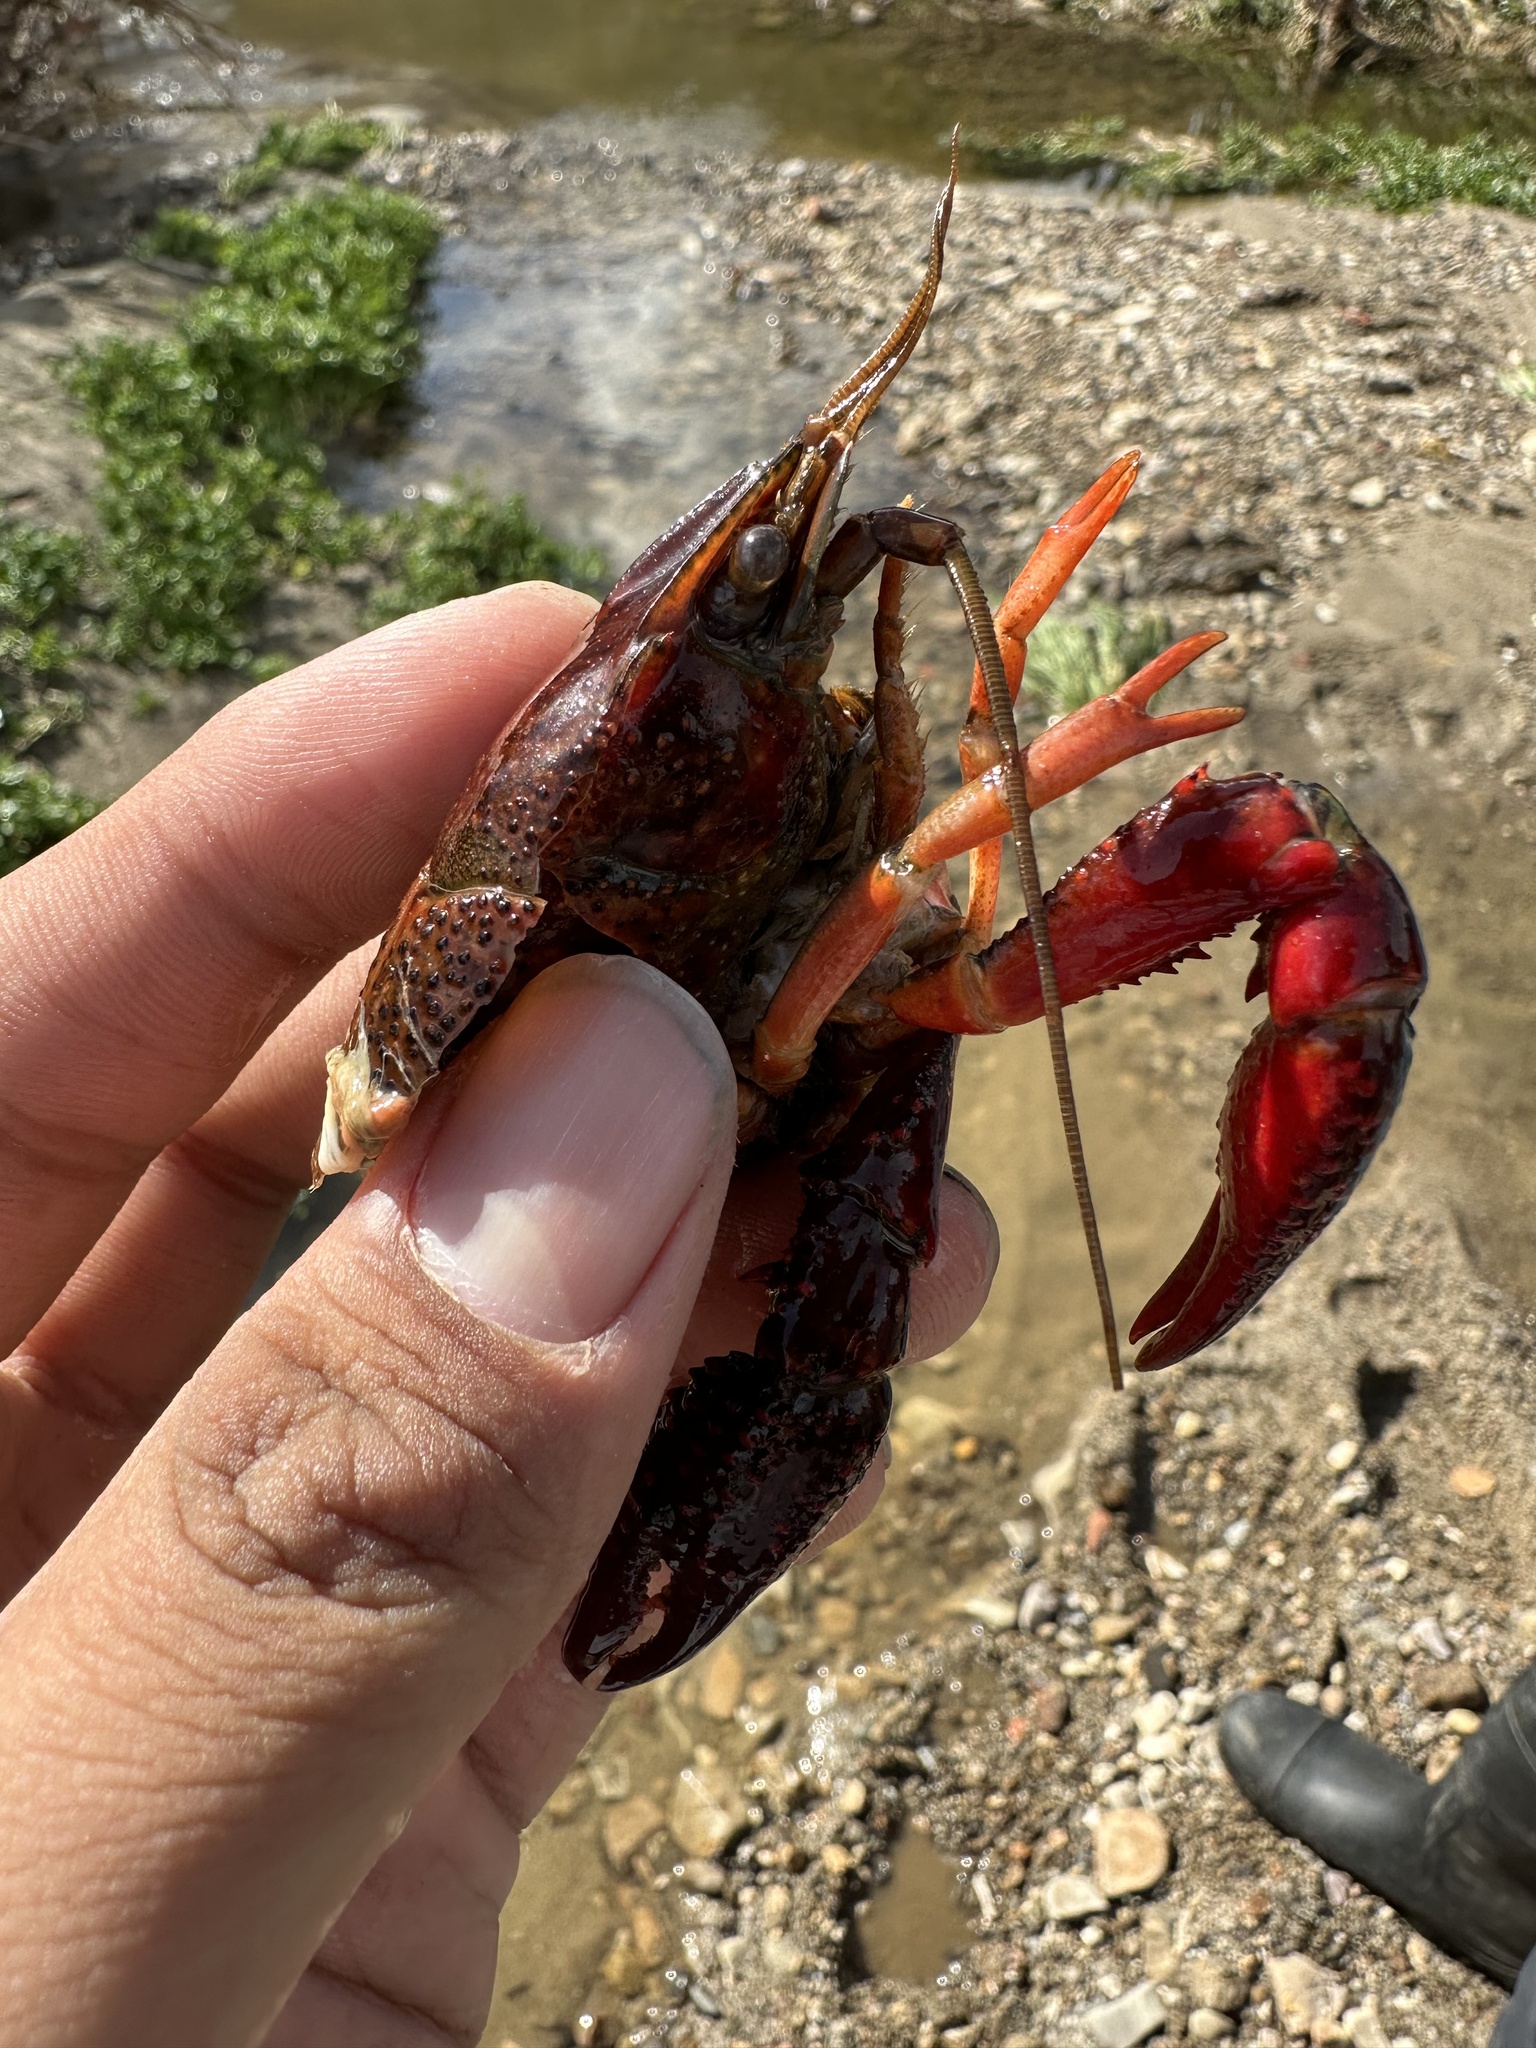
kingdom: Animalia
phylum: Arthropoda
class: Malacostraca
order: Decapoda
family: Cambaridae
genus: Procambarus
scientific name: Procambarus clarkii
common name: Red swamp crayfish
